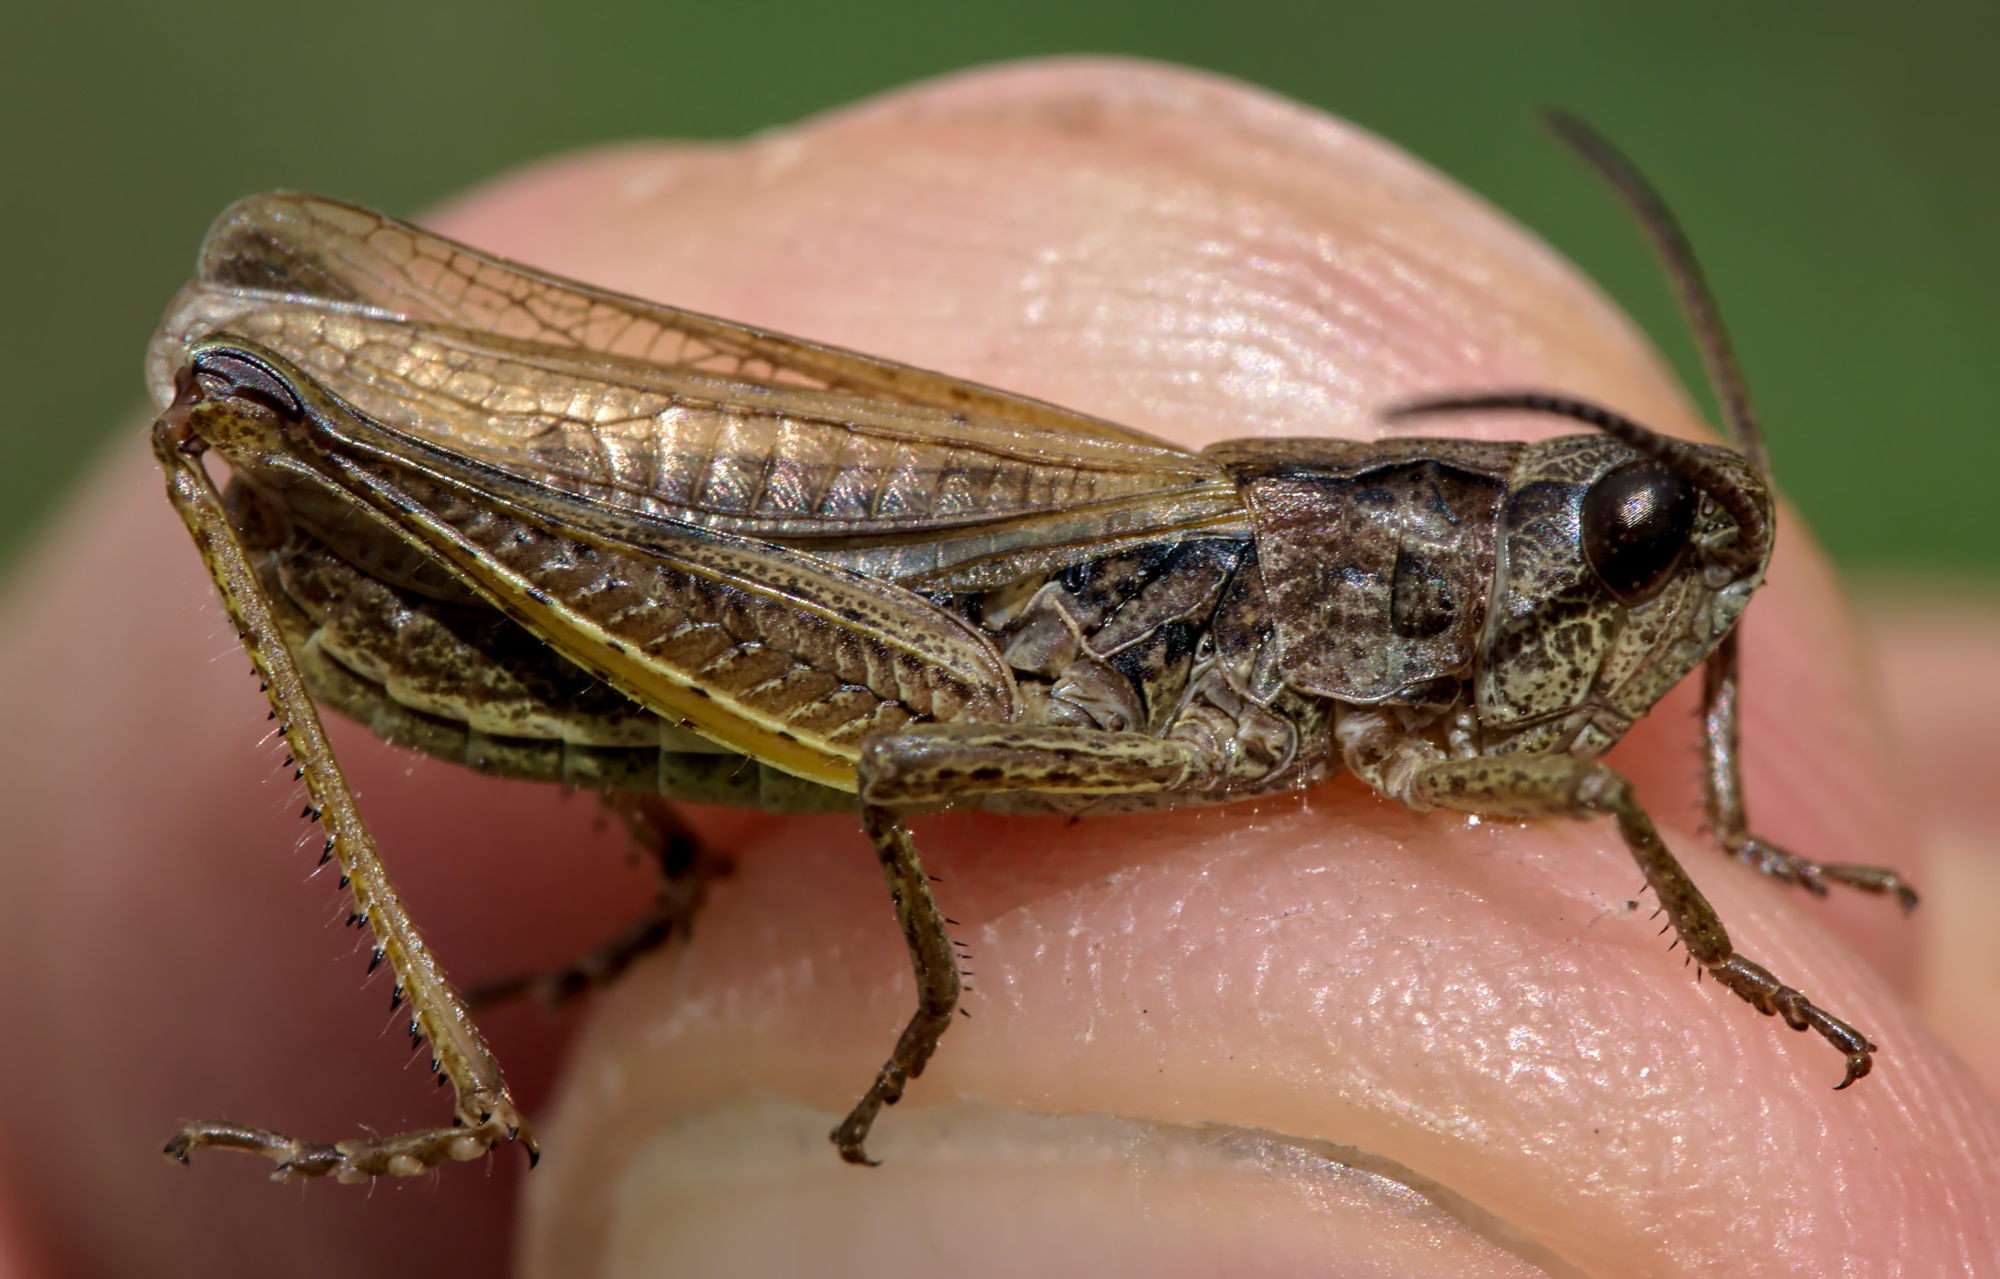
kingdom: Animalia
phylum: Arthropoda
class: Insecta
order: Orthoptera
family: Acrididae
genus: Chorthippus
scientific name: Chorthippus apricarius
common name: Upland field grasshopper
